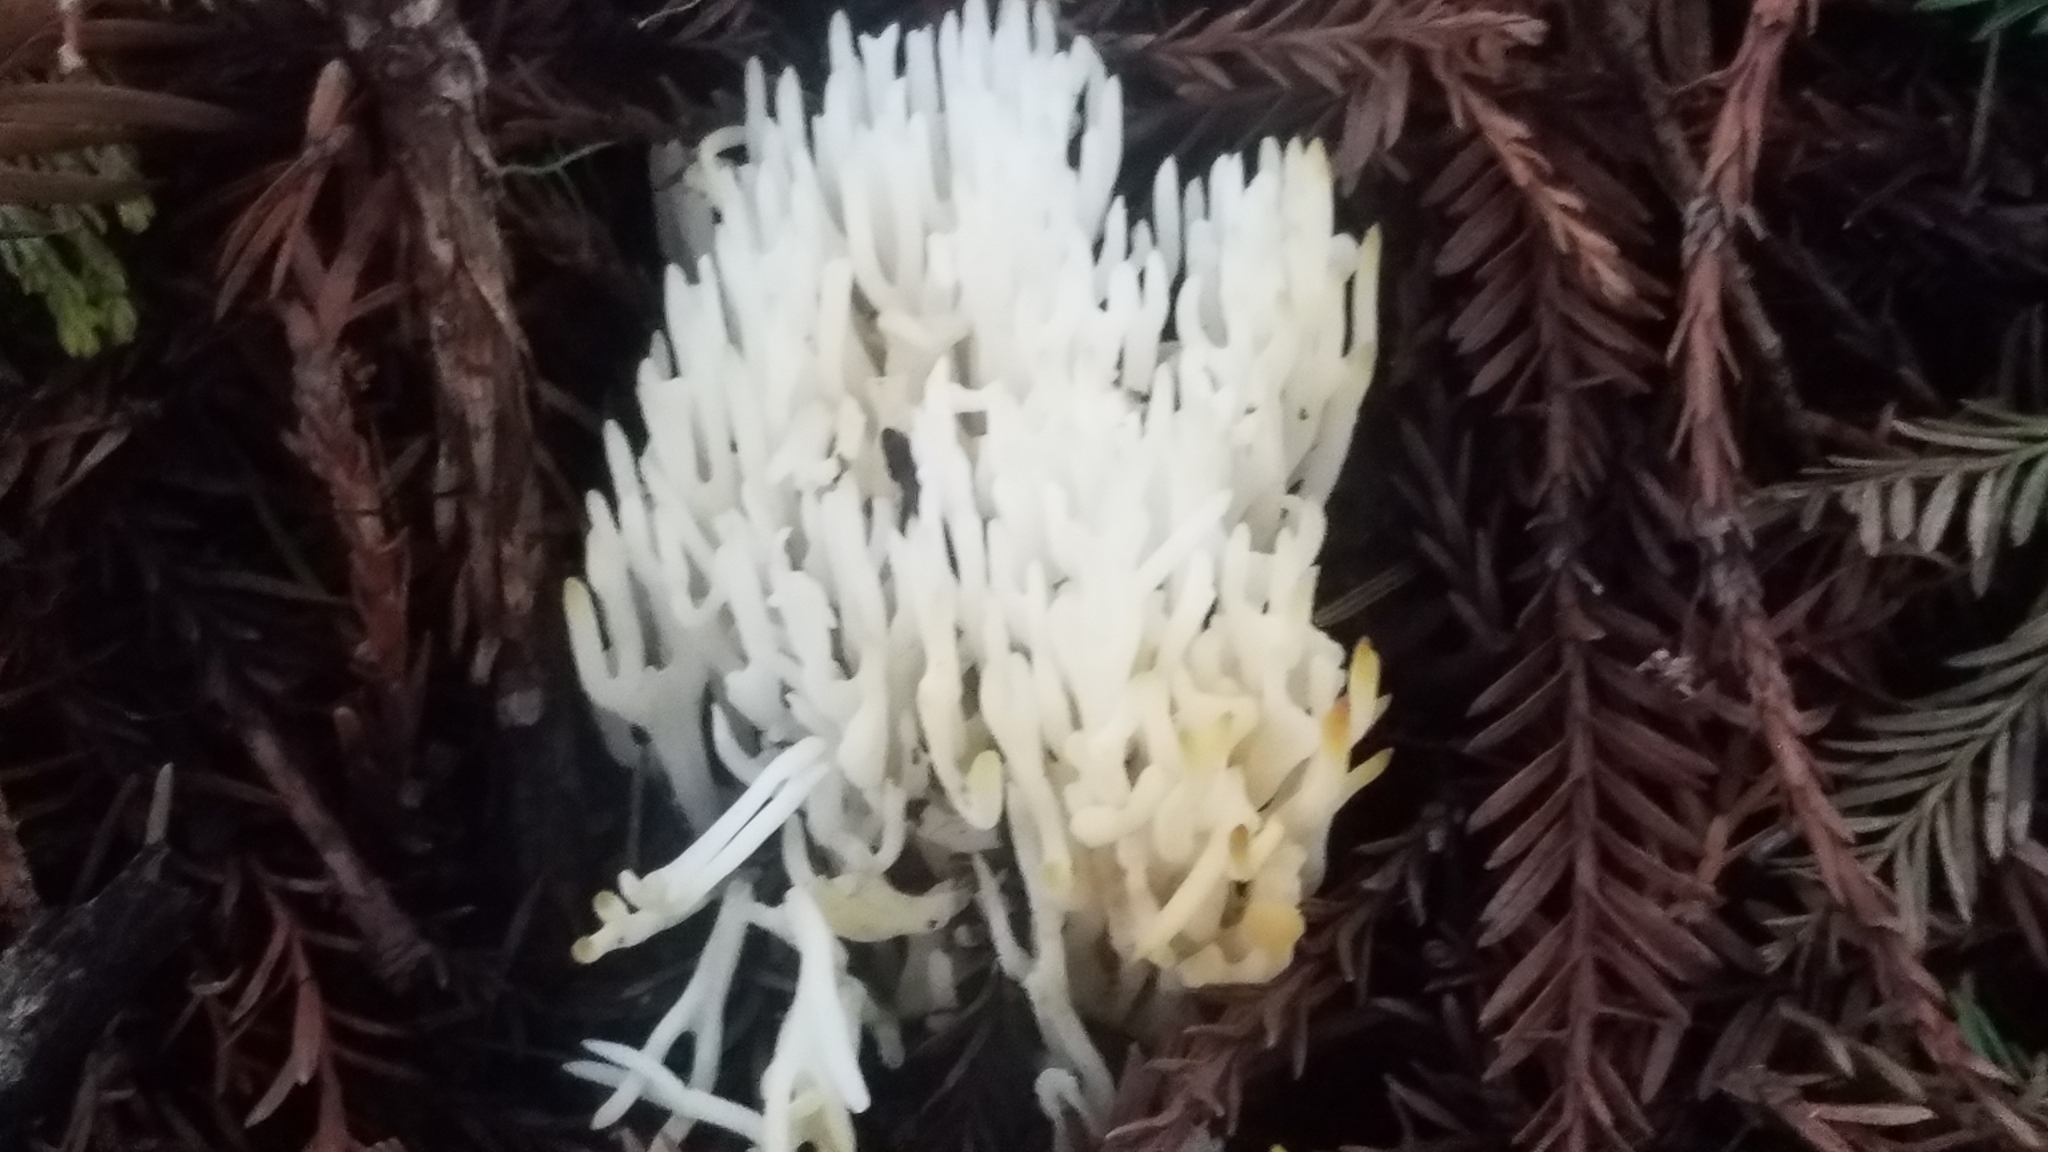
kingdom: Fungi
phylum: Basidiomycota
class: Agaricomycetes
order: Agaricales
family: Clavariaceae
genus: Ramariopsis
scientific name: Ramariopsis kunzei
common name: Ivory coral
